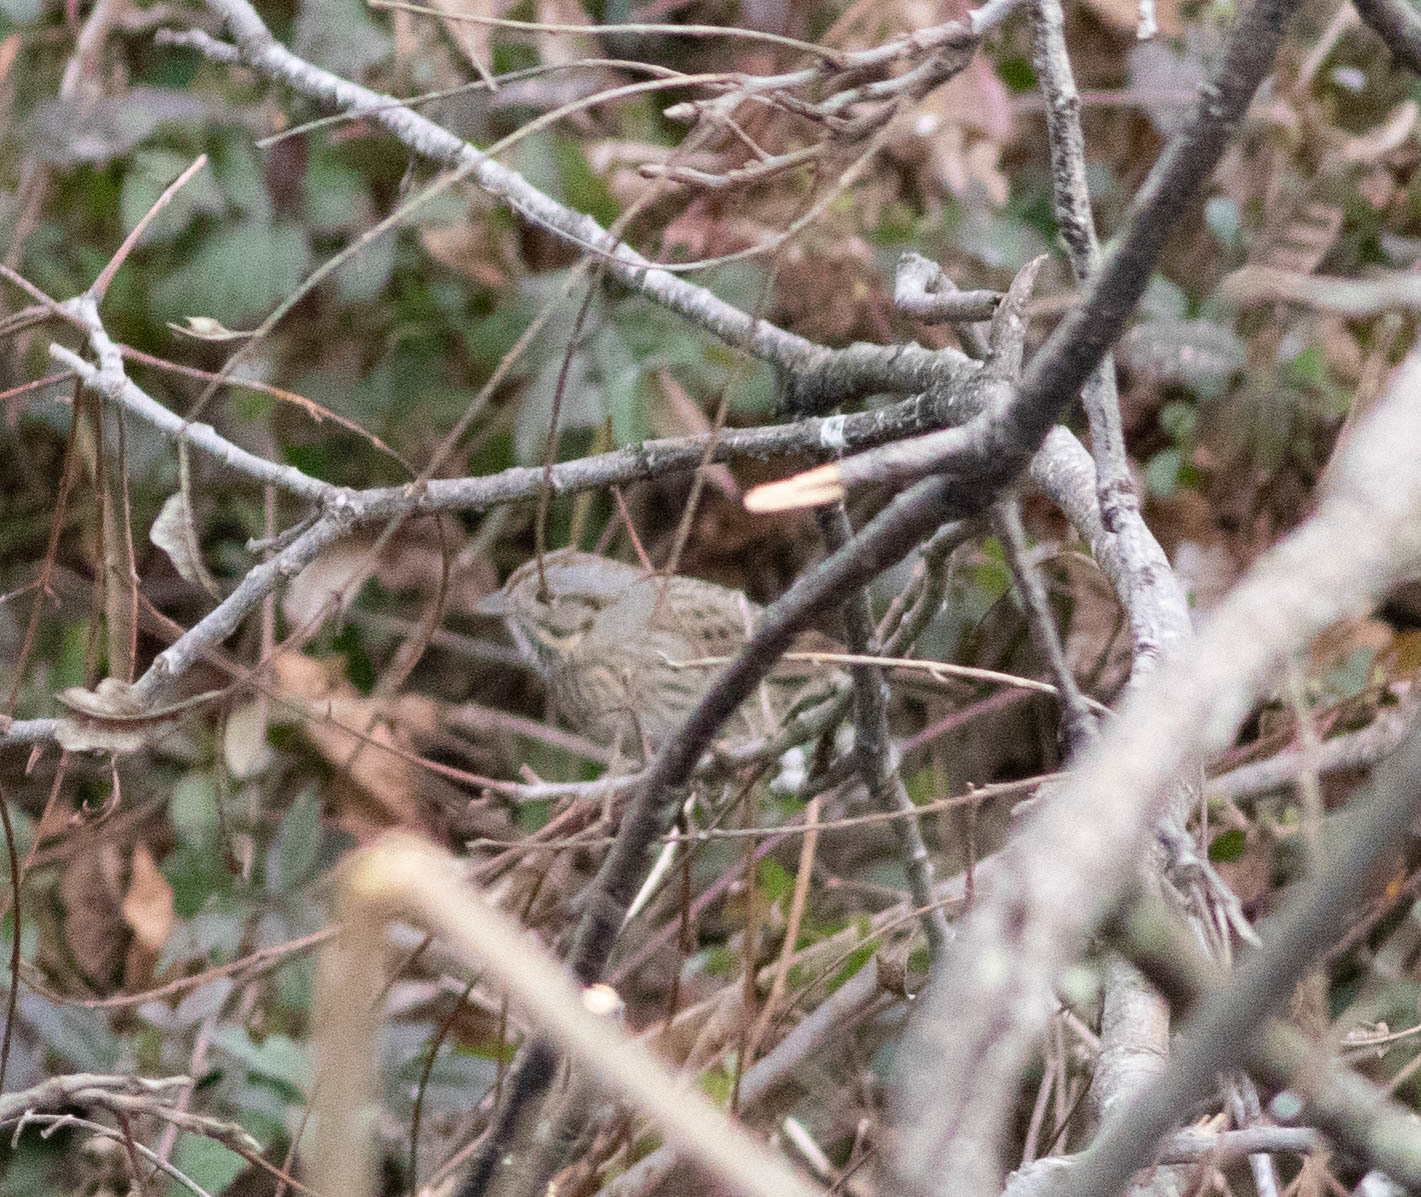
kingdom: Animalia
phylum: Chordata
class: Aves
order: Passeriformes
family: Passerellidae
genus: Melospiza
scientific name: Melospiza lincolnii
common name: Lincoln's sparrow
